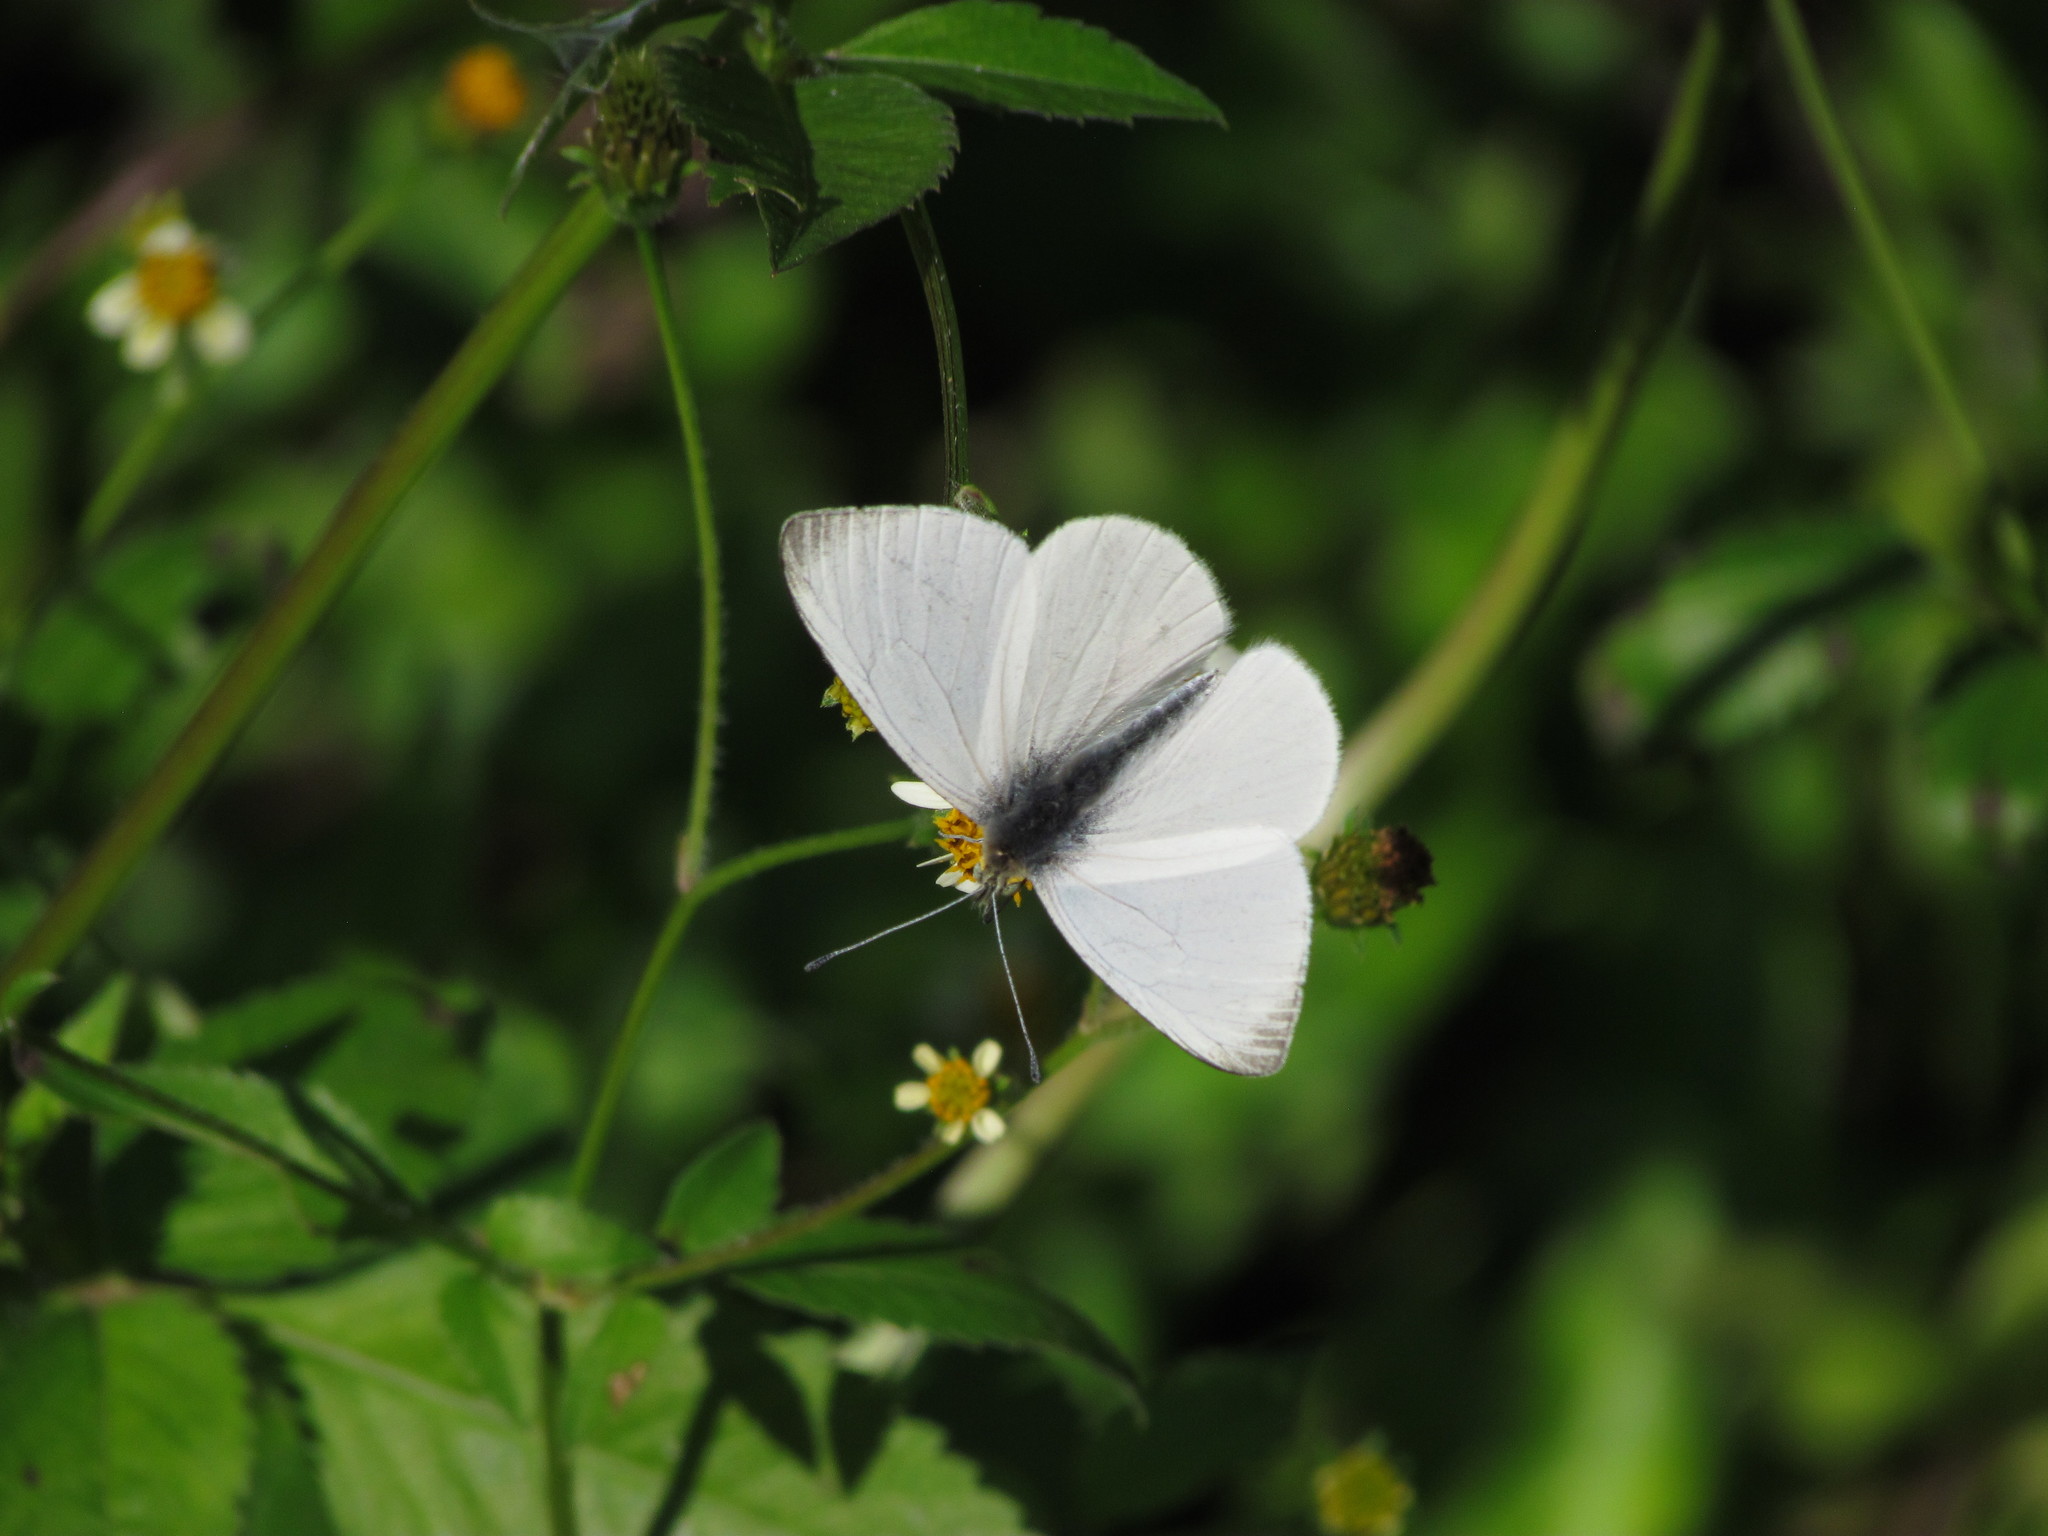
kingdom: Animalia
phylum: Arthropoda
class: Insecta
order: Lepidoptera
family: Pieridae
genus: Theochila
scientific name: Theochila maenacte
